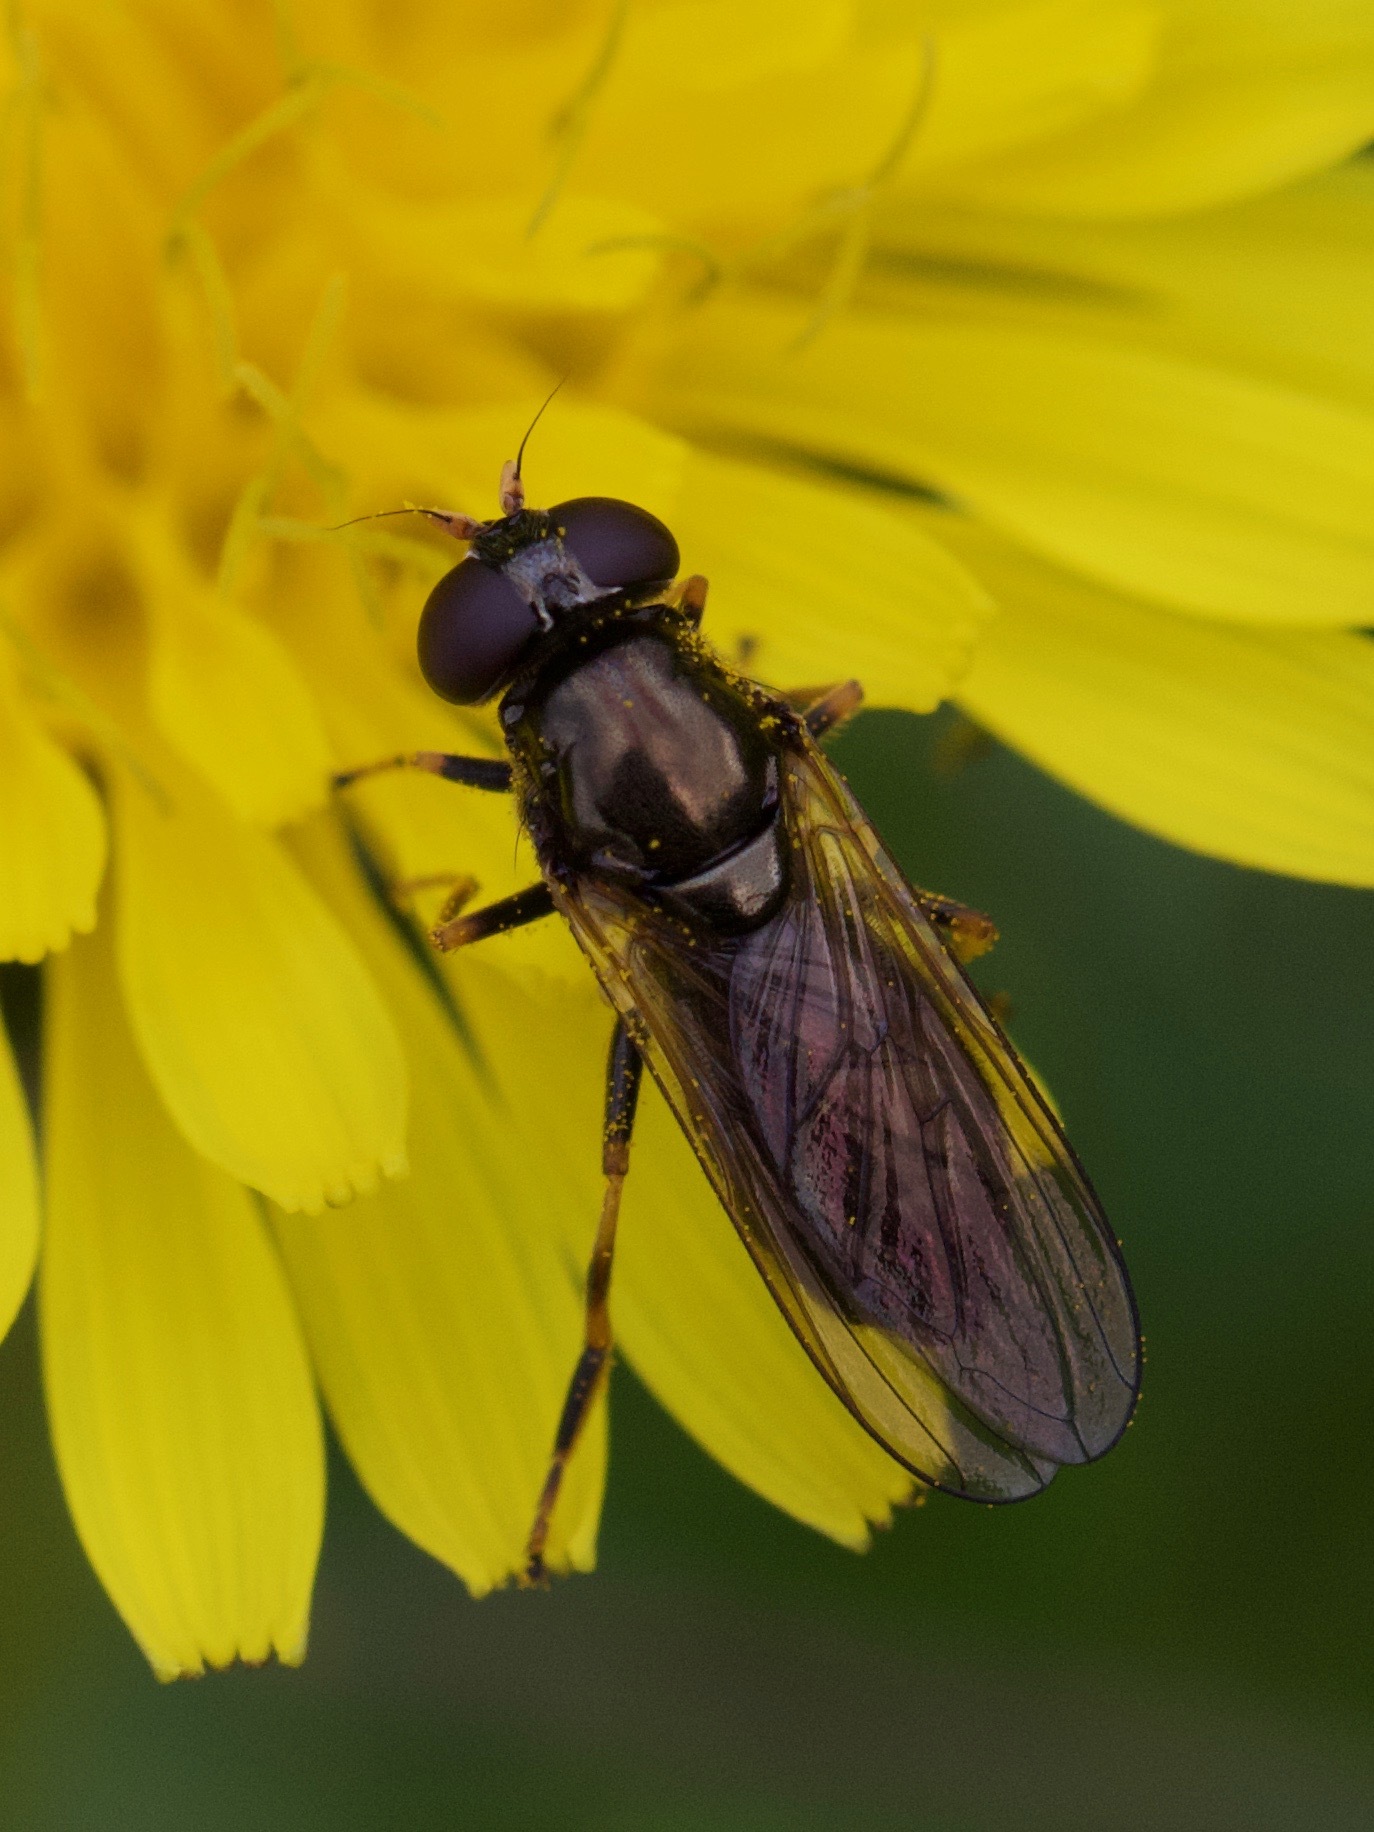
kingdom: Animalia
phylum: Arthropoda
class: Insecta
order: Diptera
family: Syrphidae
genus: Cheilosia
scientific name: Cheilosia pagana
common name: Hover fly
